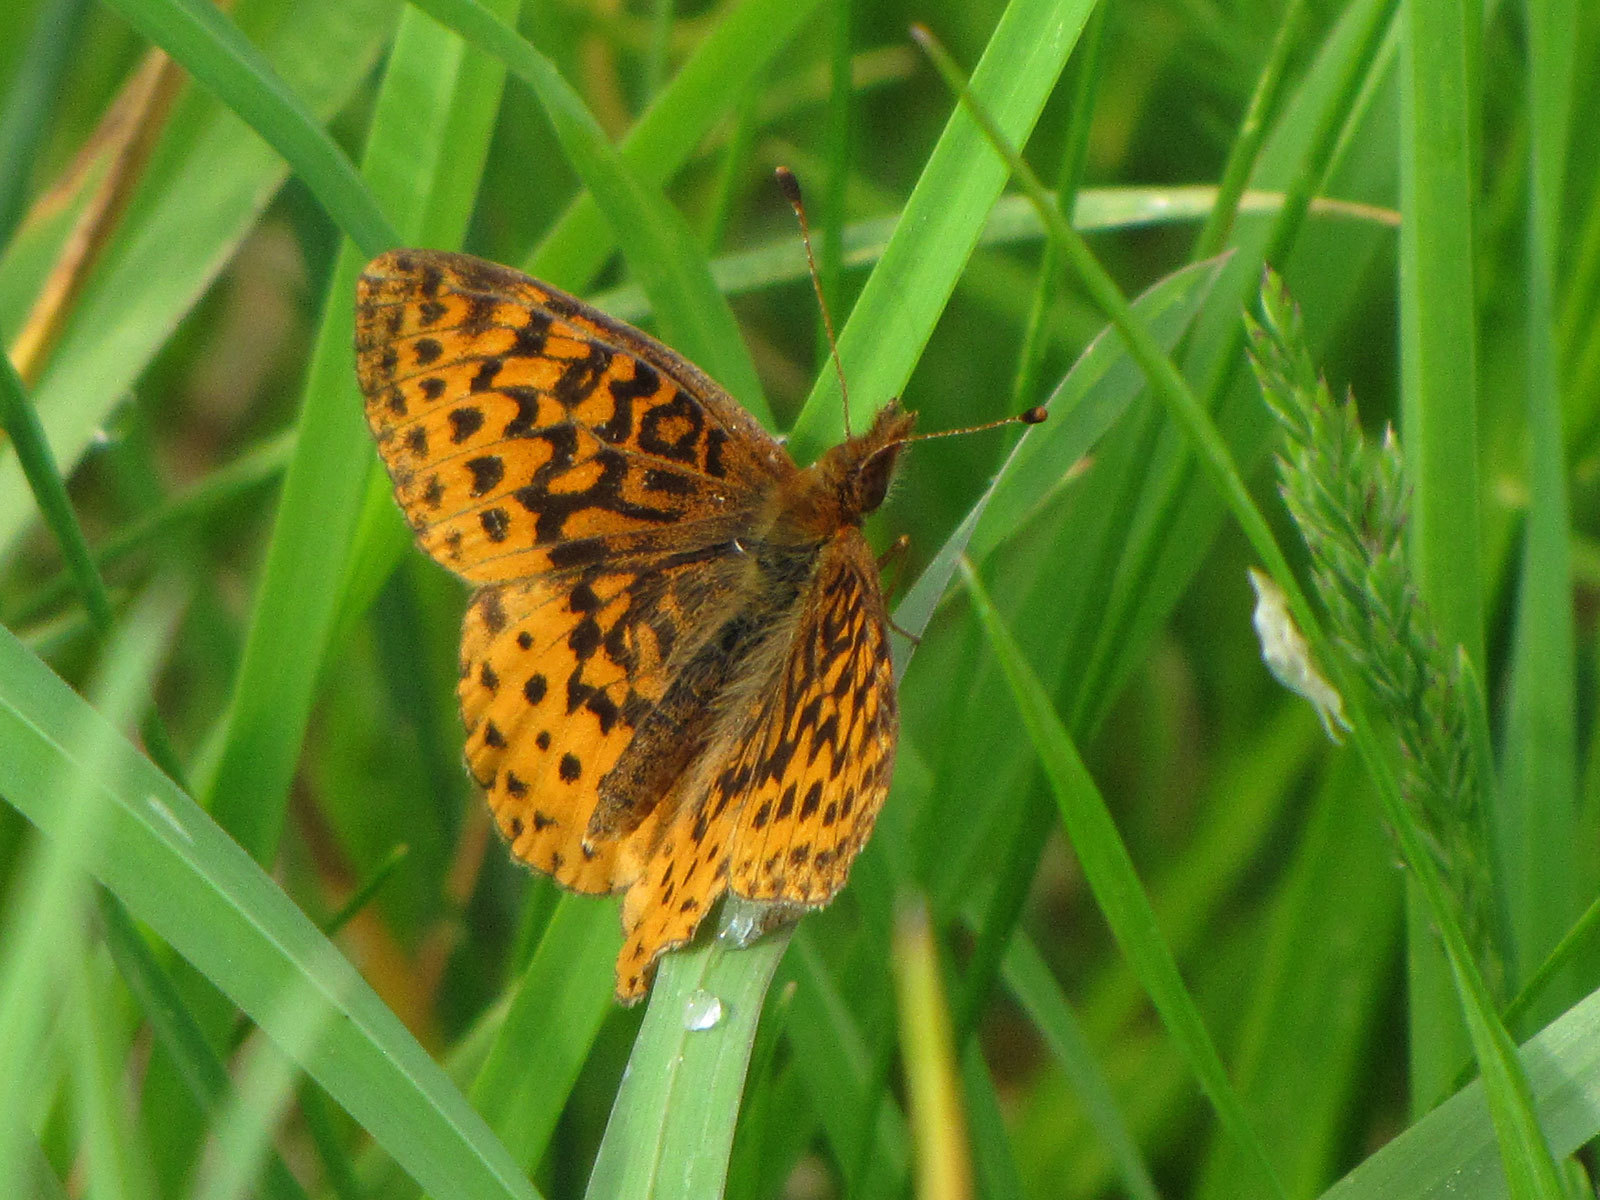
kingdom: Animalia
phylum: Arthropoda
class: Insecta
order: Lepidoptera
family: Nymphalidae
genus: Clossiana
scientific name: Clossiana toddi
